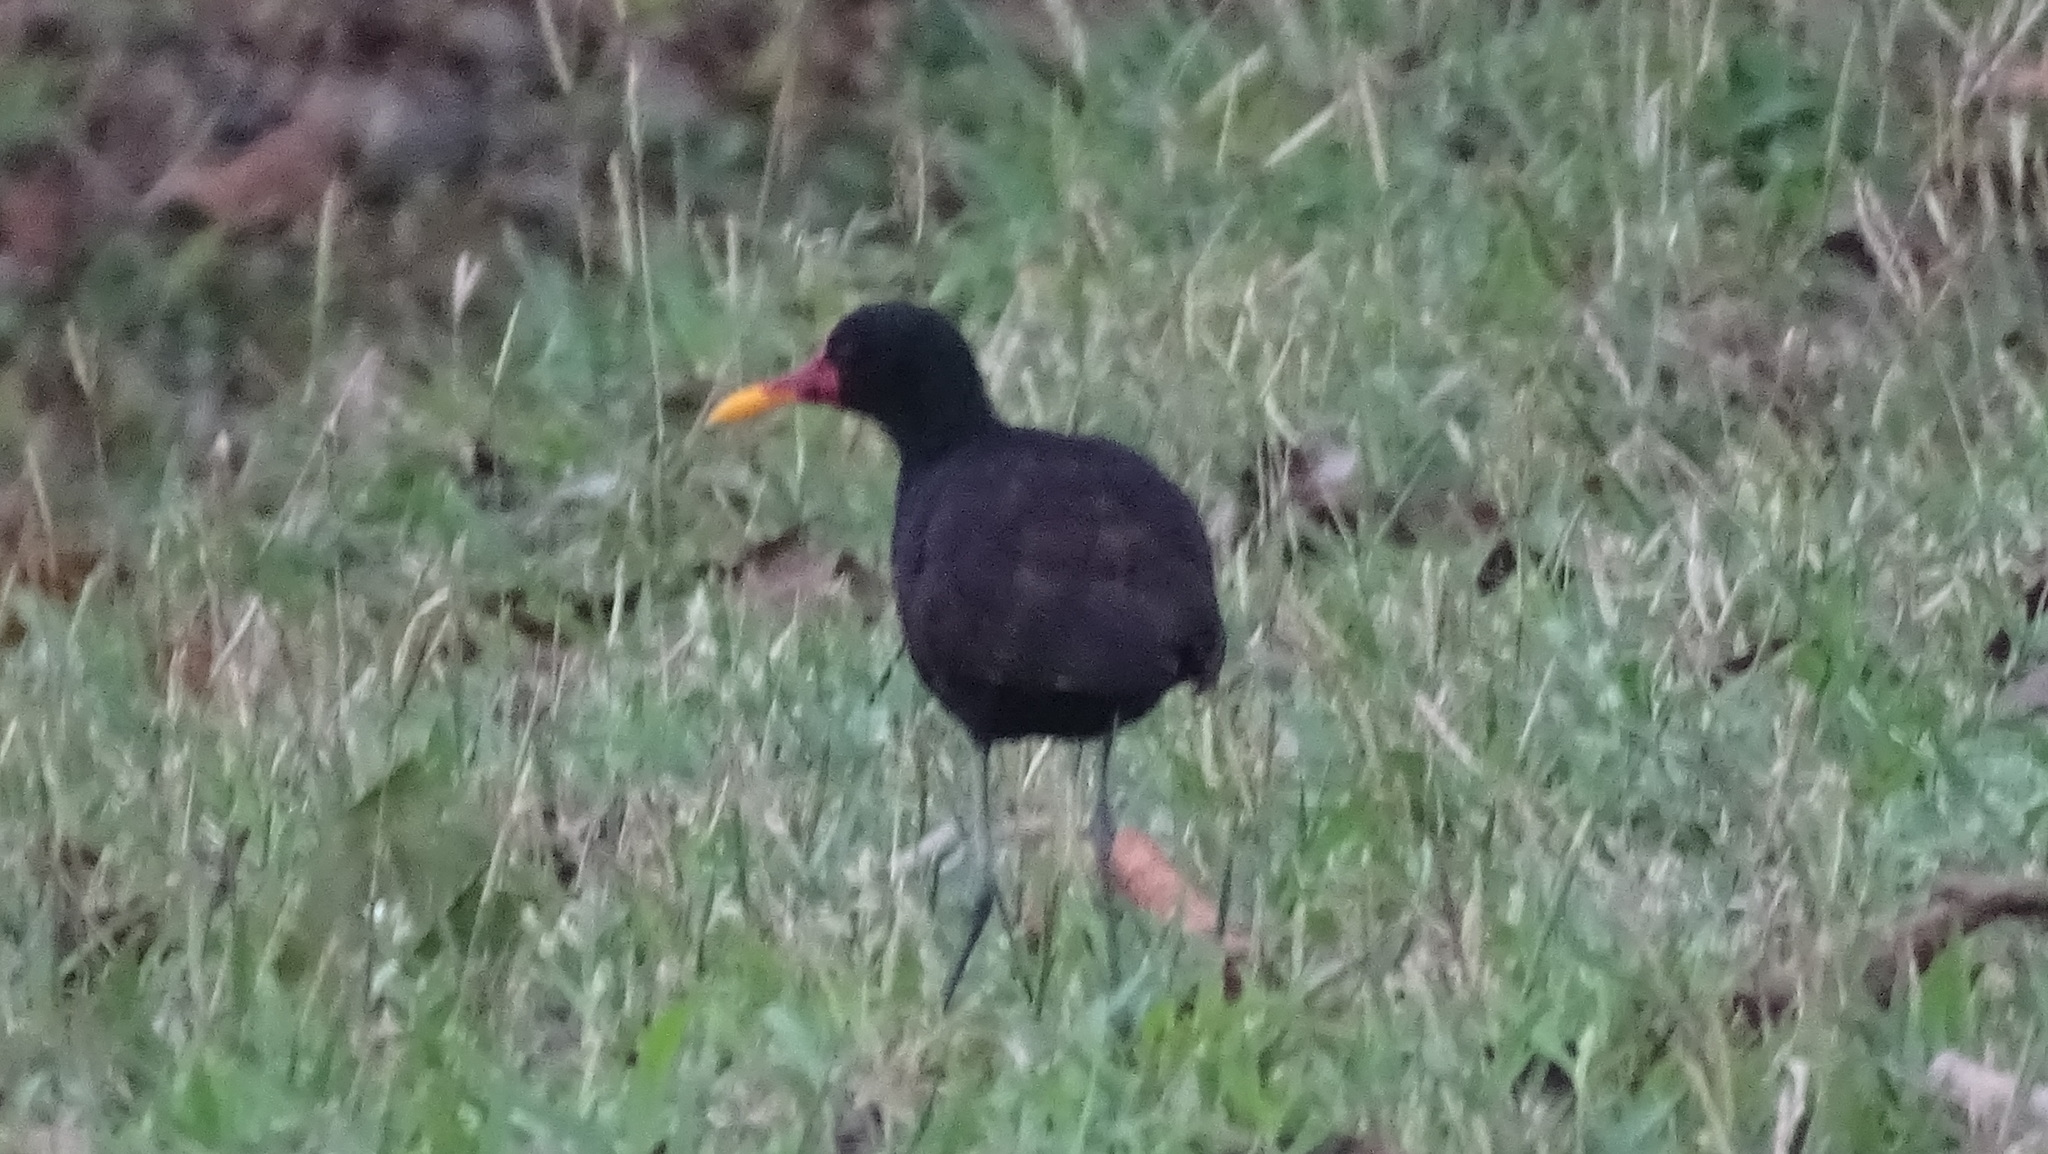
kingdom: Animalia
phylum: Chordata
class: Aves
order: Charadriiformes
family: Jacanidae
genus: Jacana
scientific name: Jacana jacana
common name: Wattled jacana
